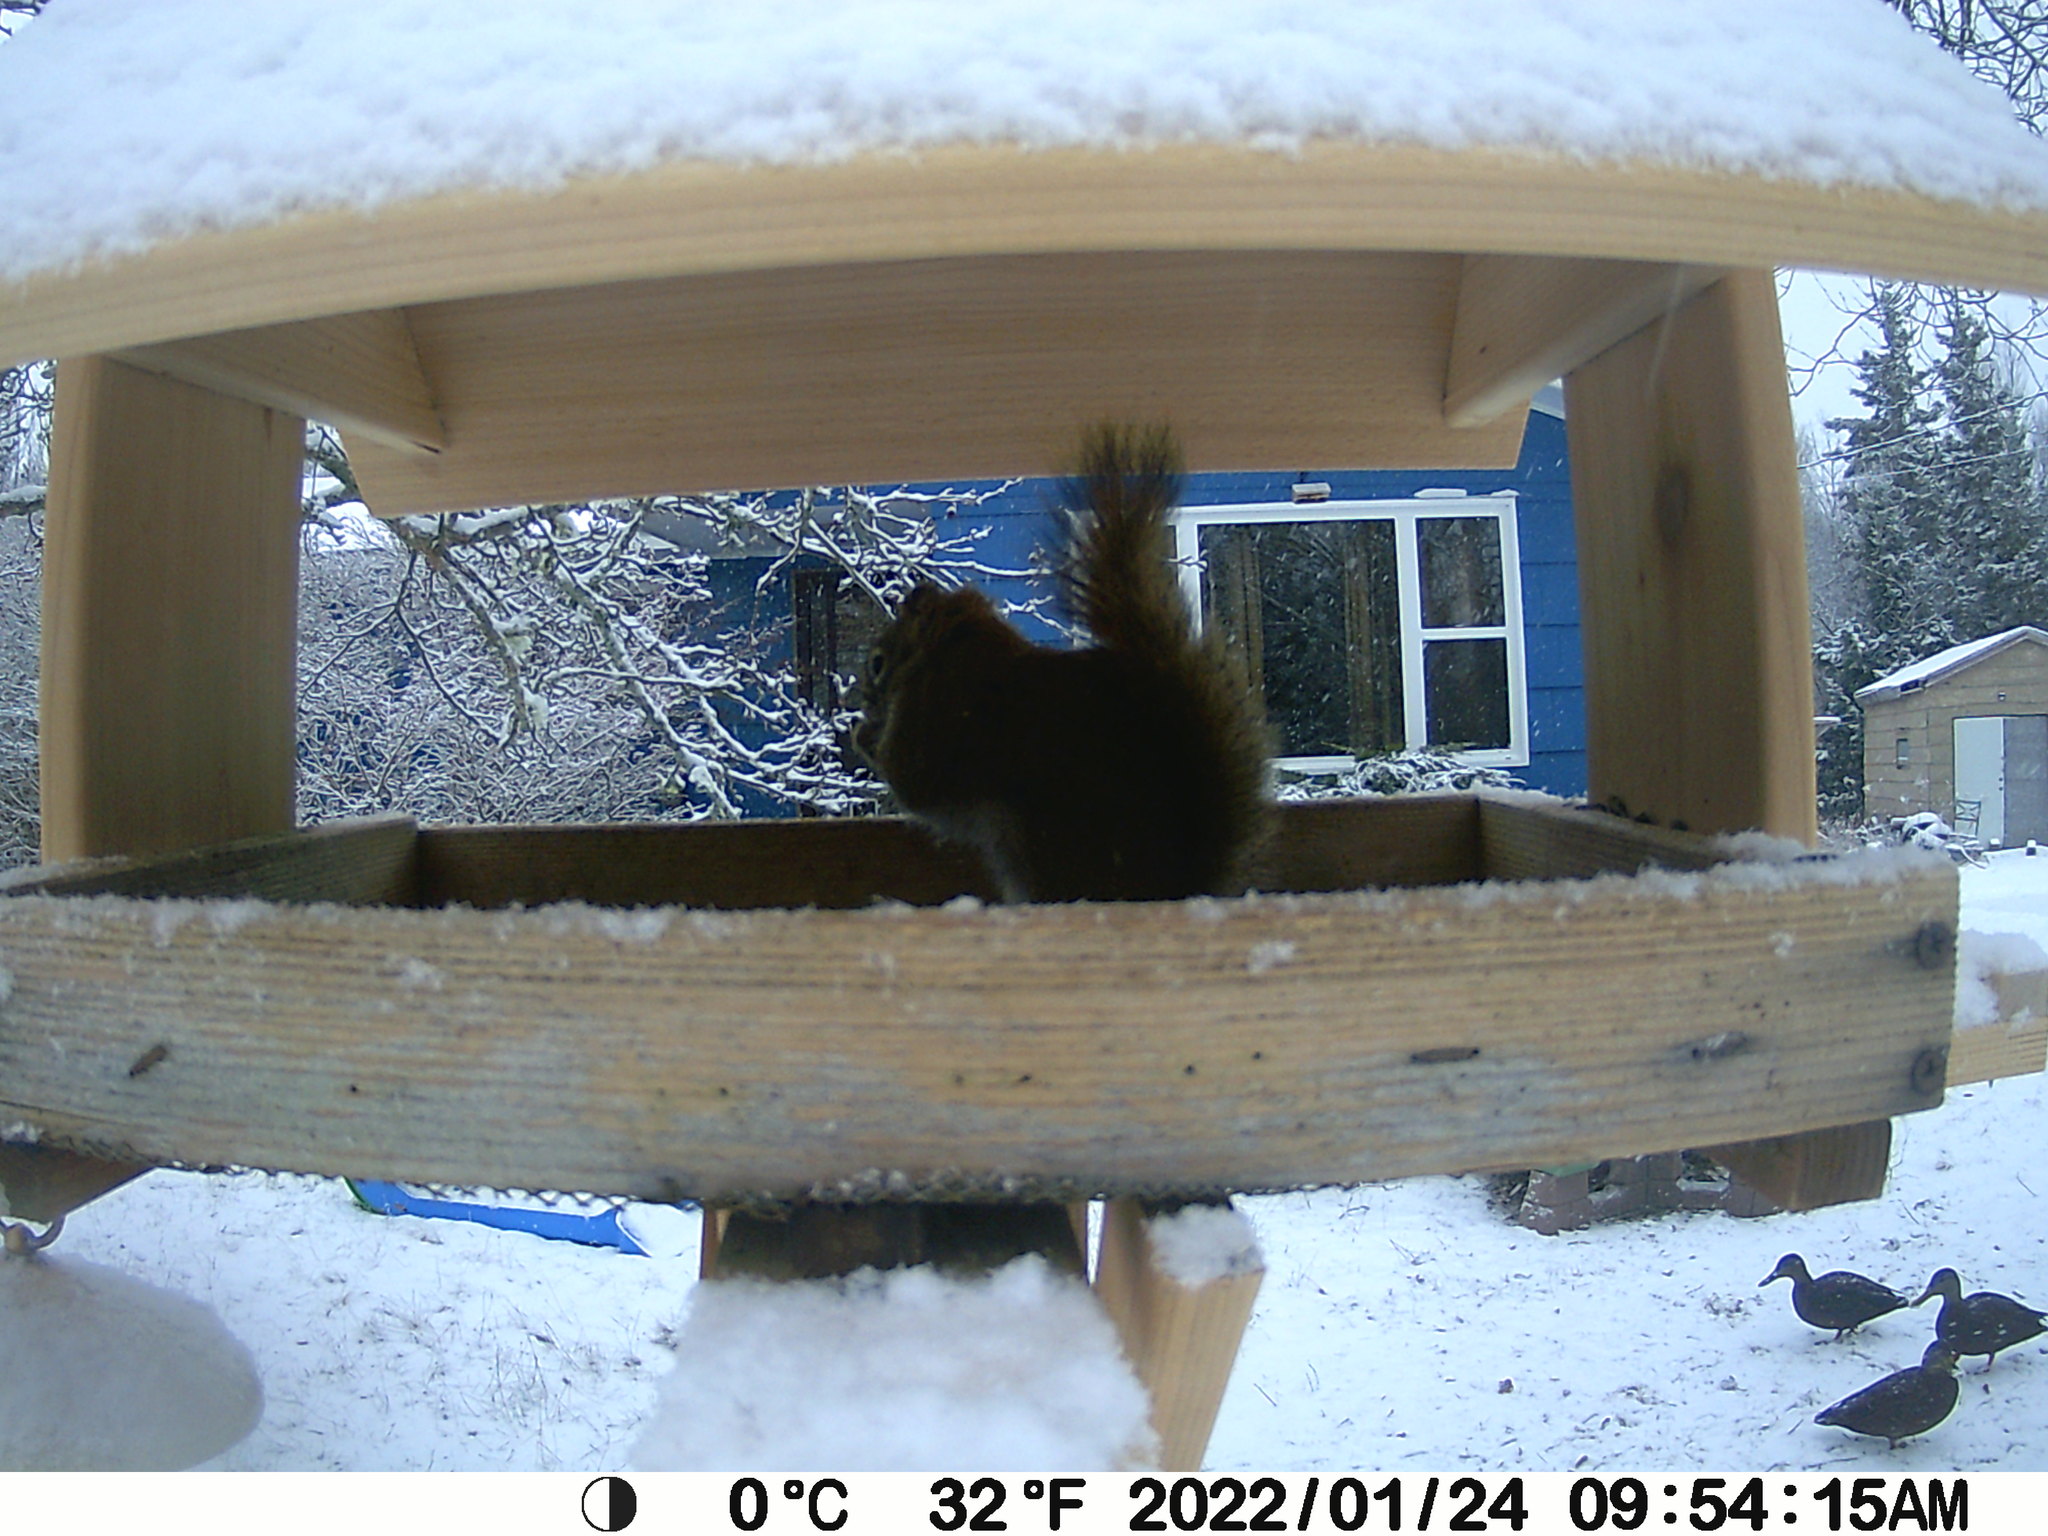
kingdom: Animalia
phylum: Chordata
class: Aves
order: Anseriformes
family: Anatidae
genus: Anas
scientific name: Anas rubripes
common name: American black duck
